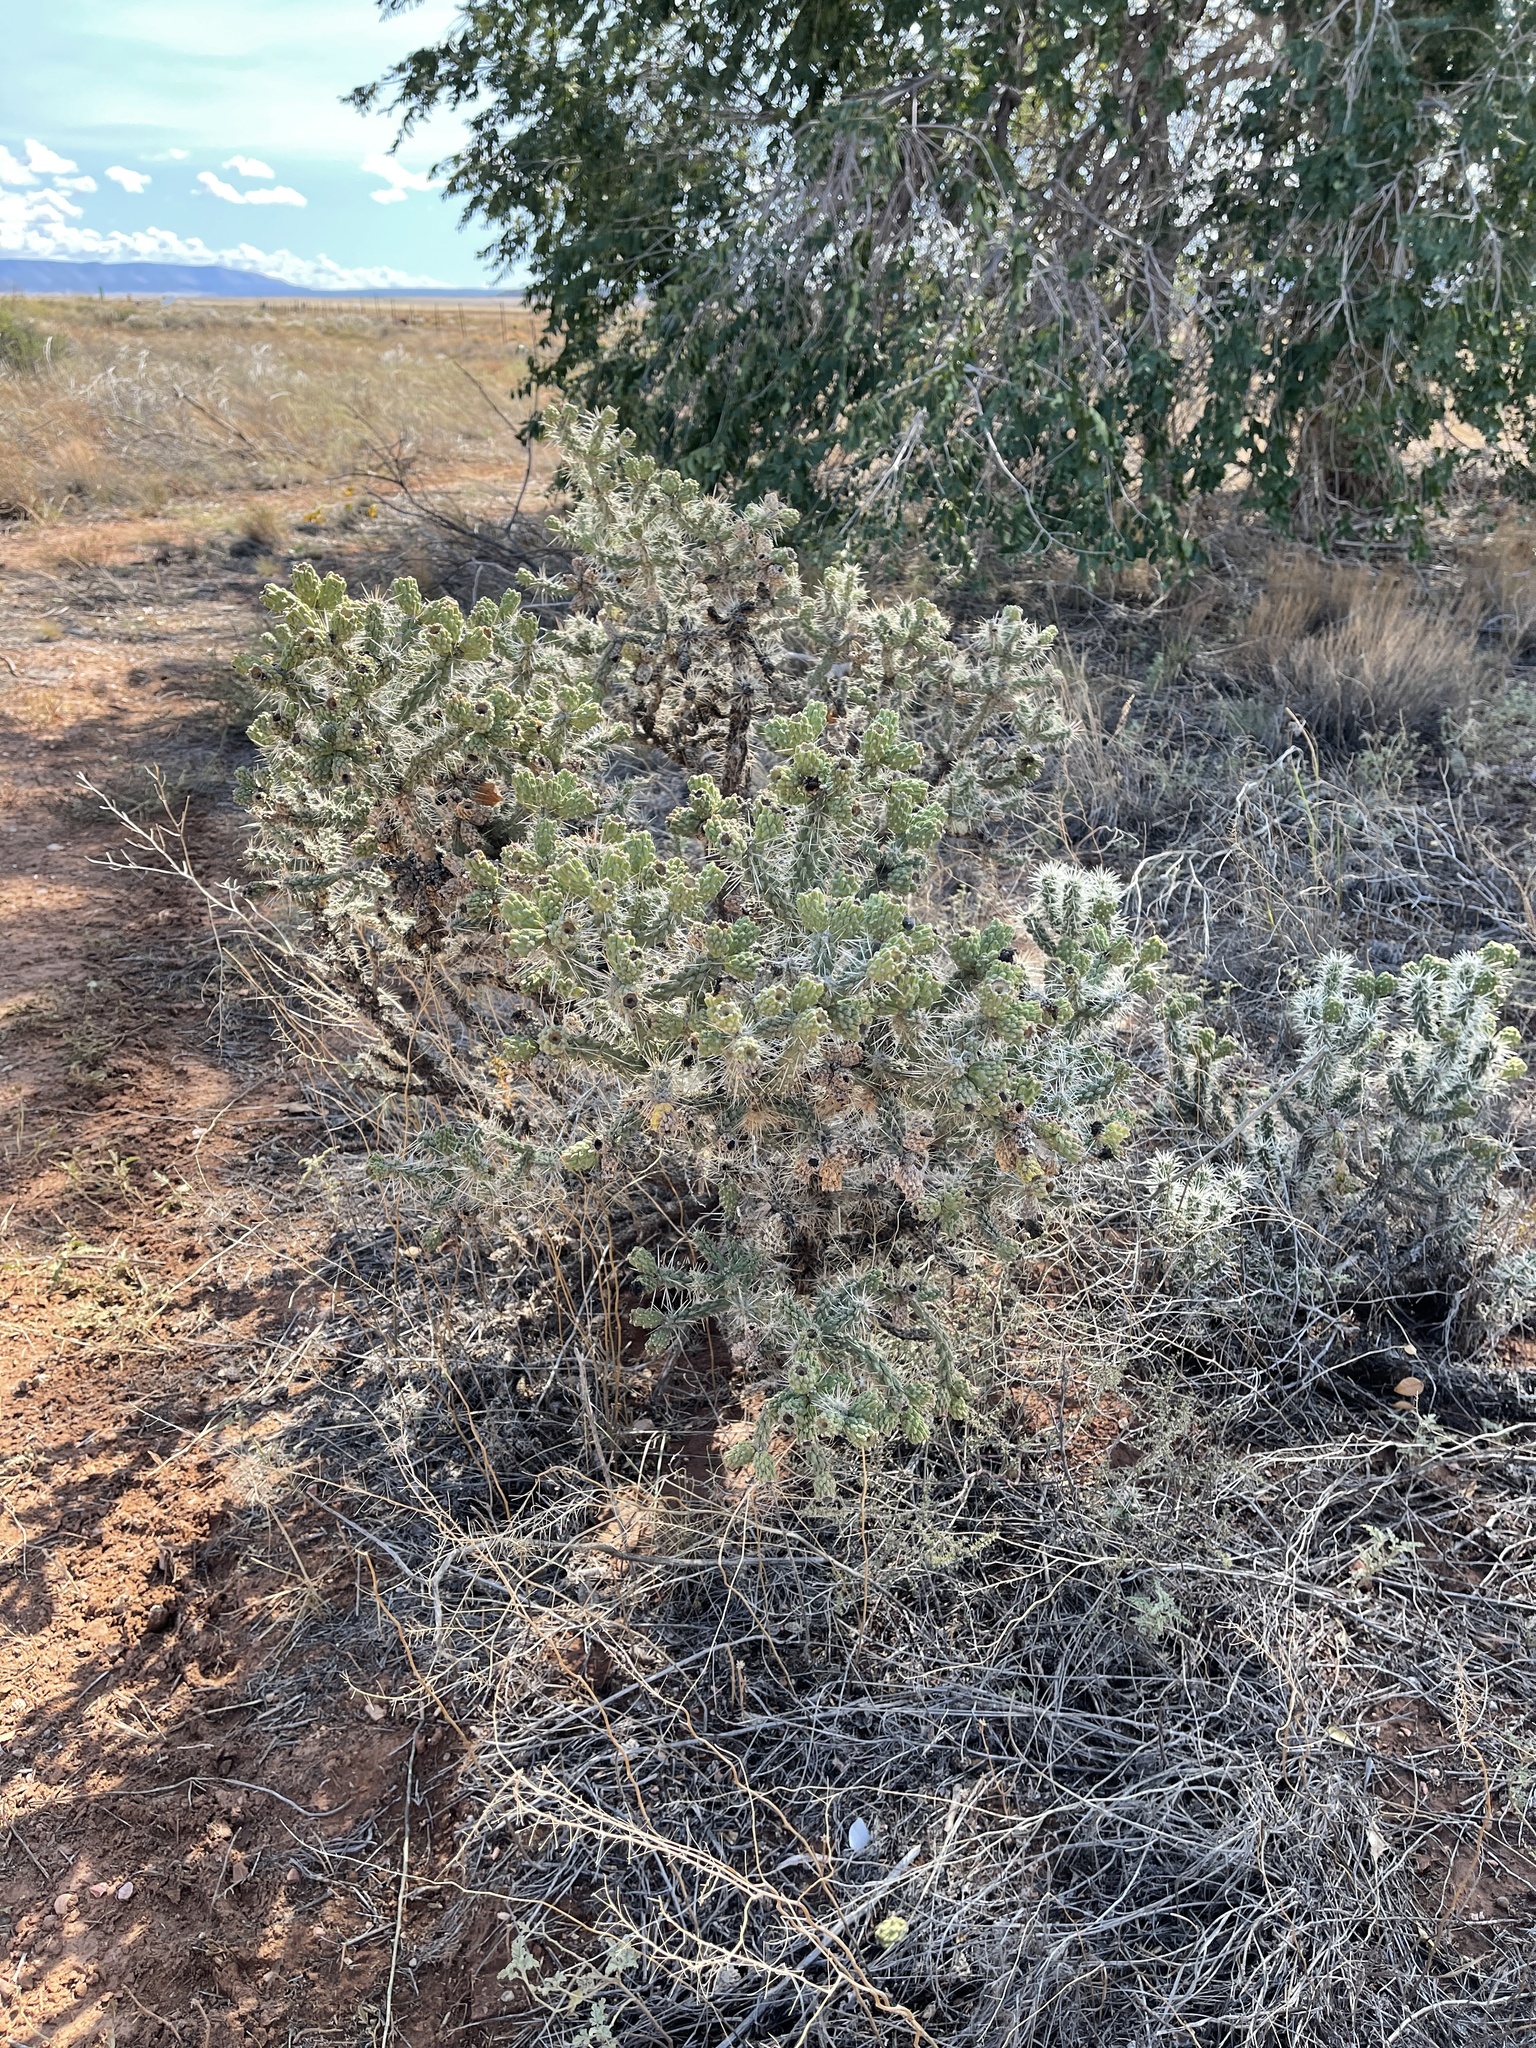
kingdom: Plantae
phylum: Tracheophyta
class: Magnoliopsida
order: Caryophyllales
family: Cactaceae
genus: Cylindropuntia
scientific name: Cylindropuntia whipplei
